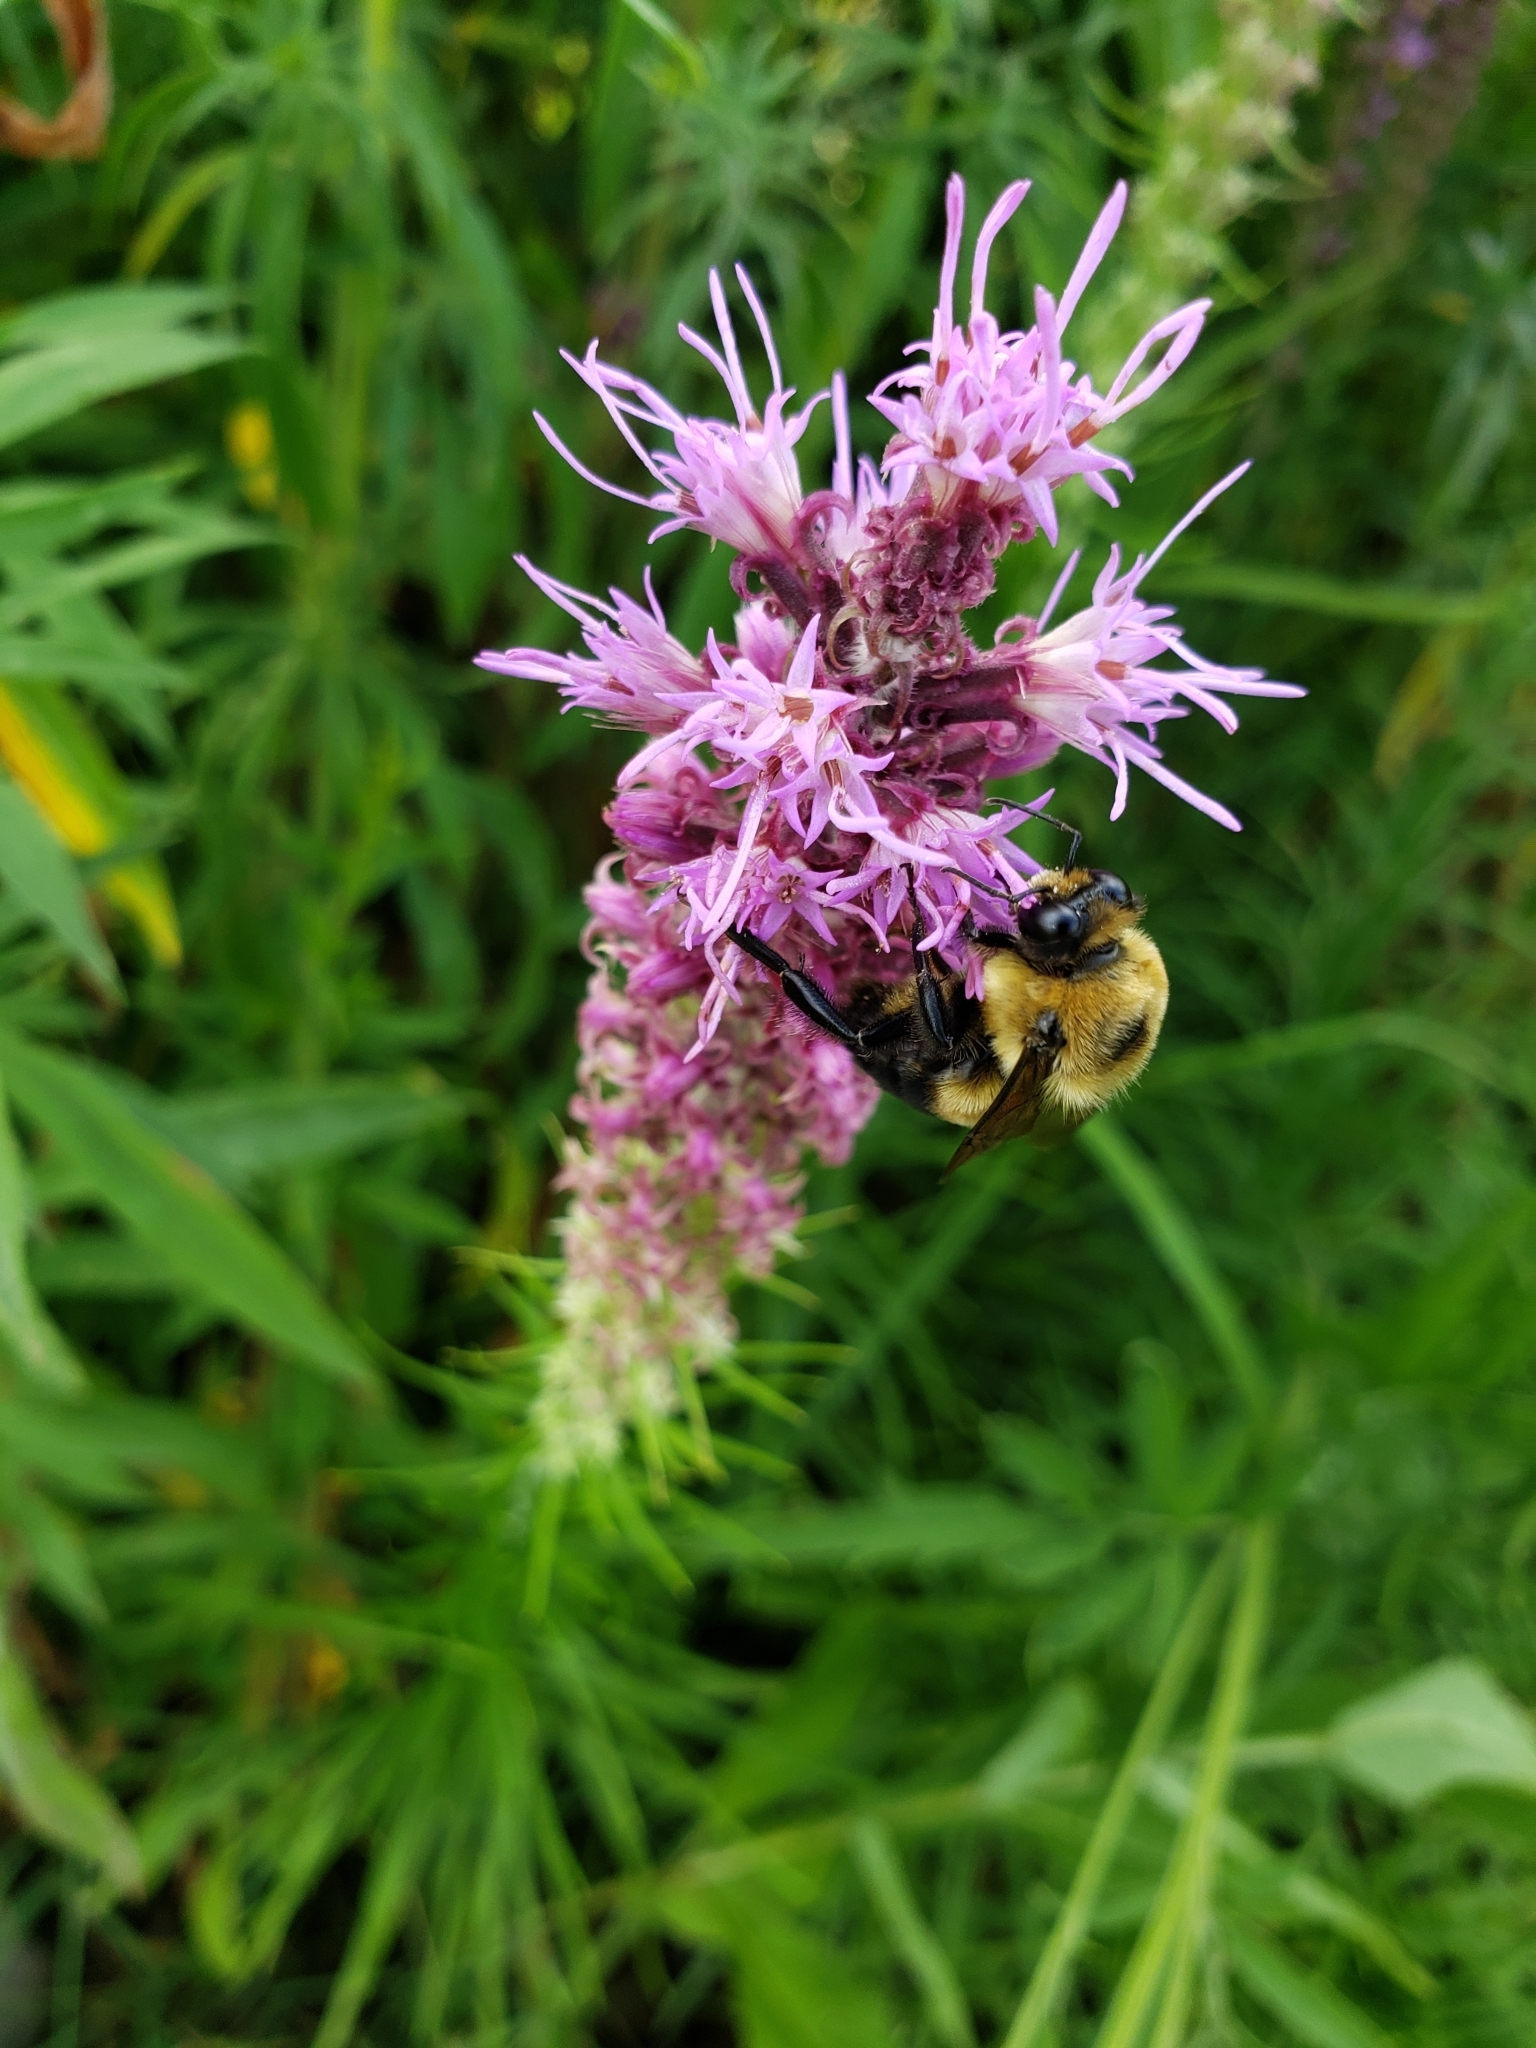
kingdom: Animalia
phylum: Arthropoda
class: Insecta
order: Hymenoptera
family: Apidae
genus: Bombus
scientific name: Bombus griseocollis
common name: Brown-belted bumble bee
